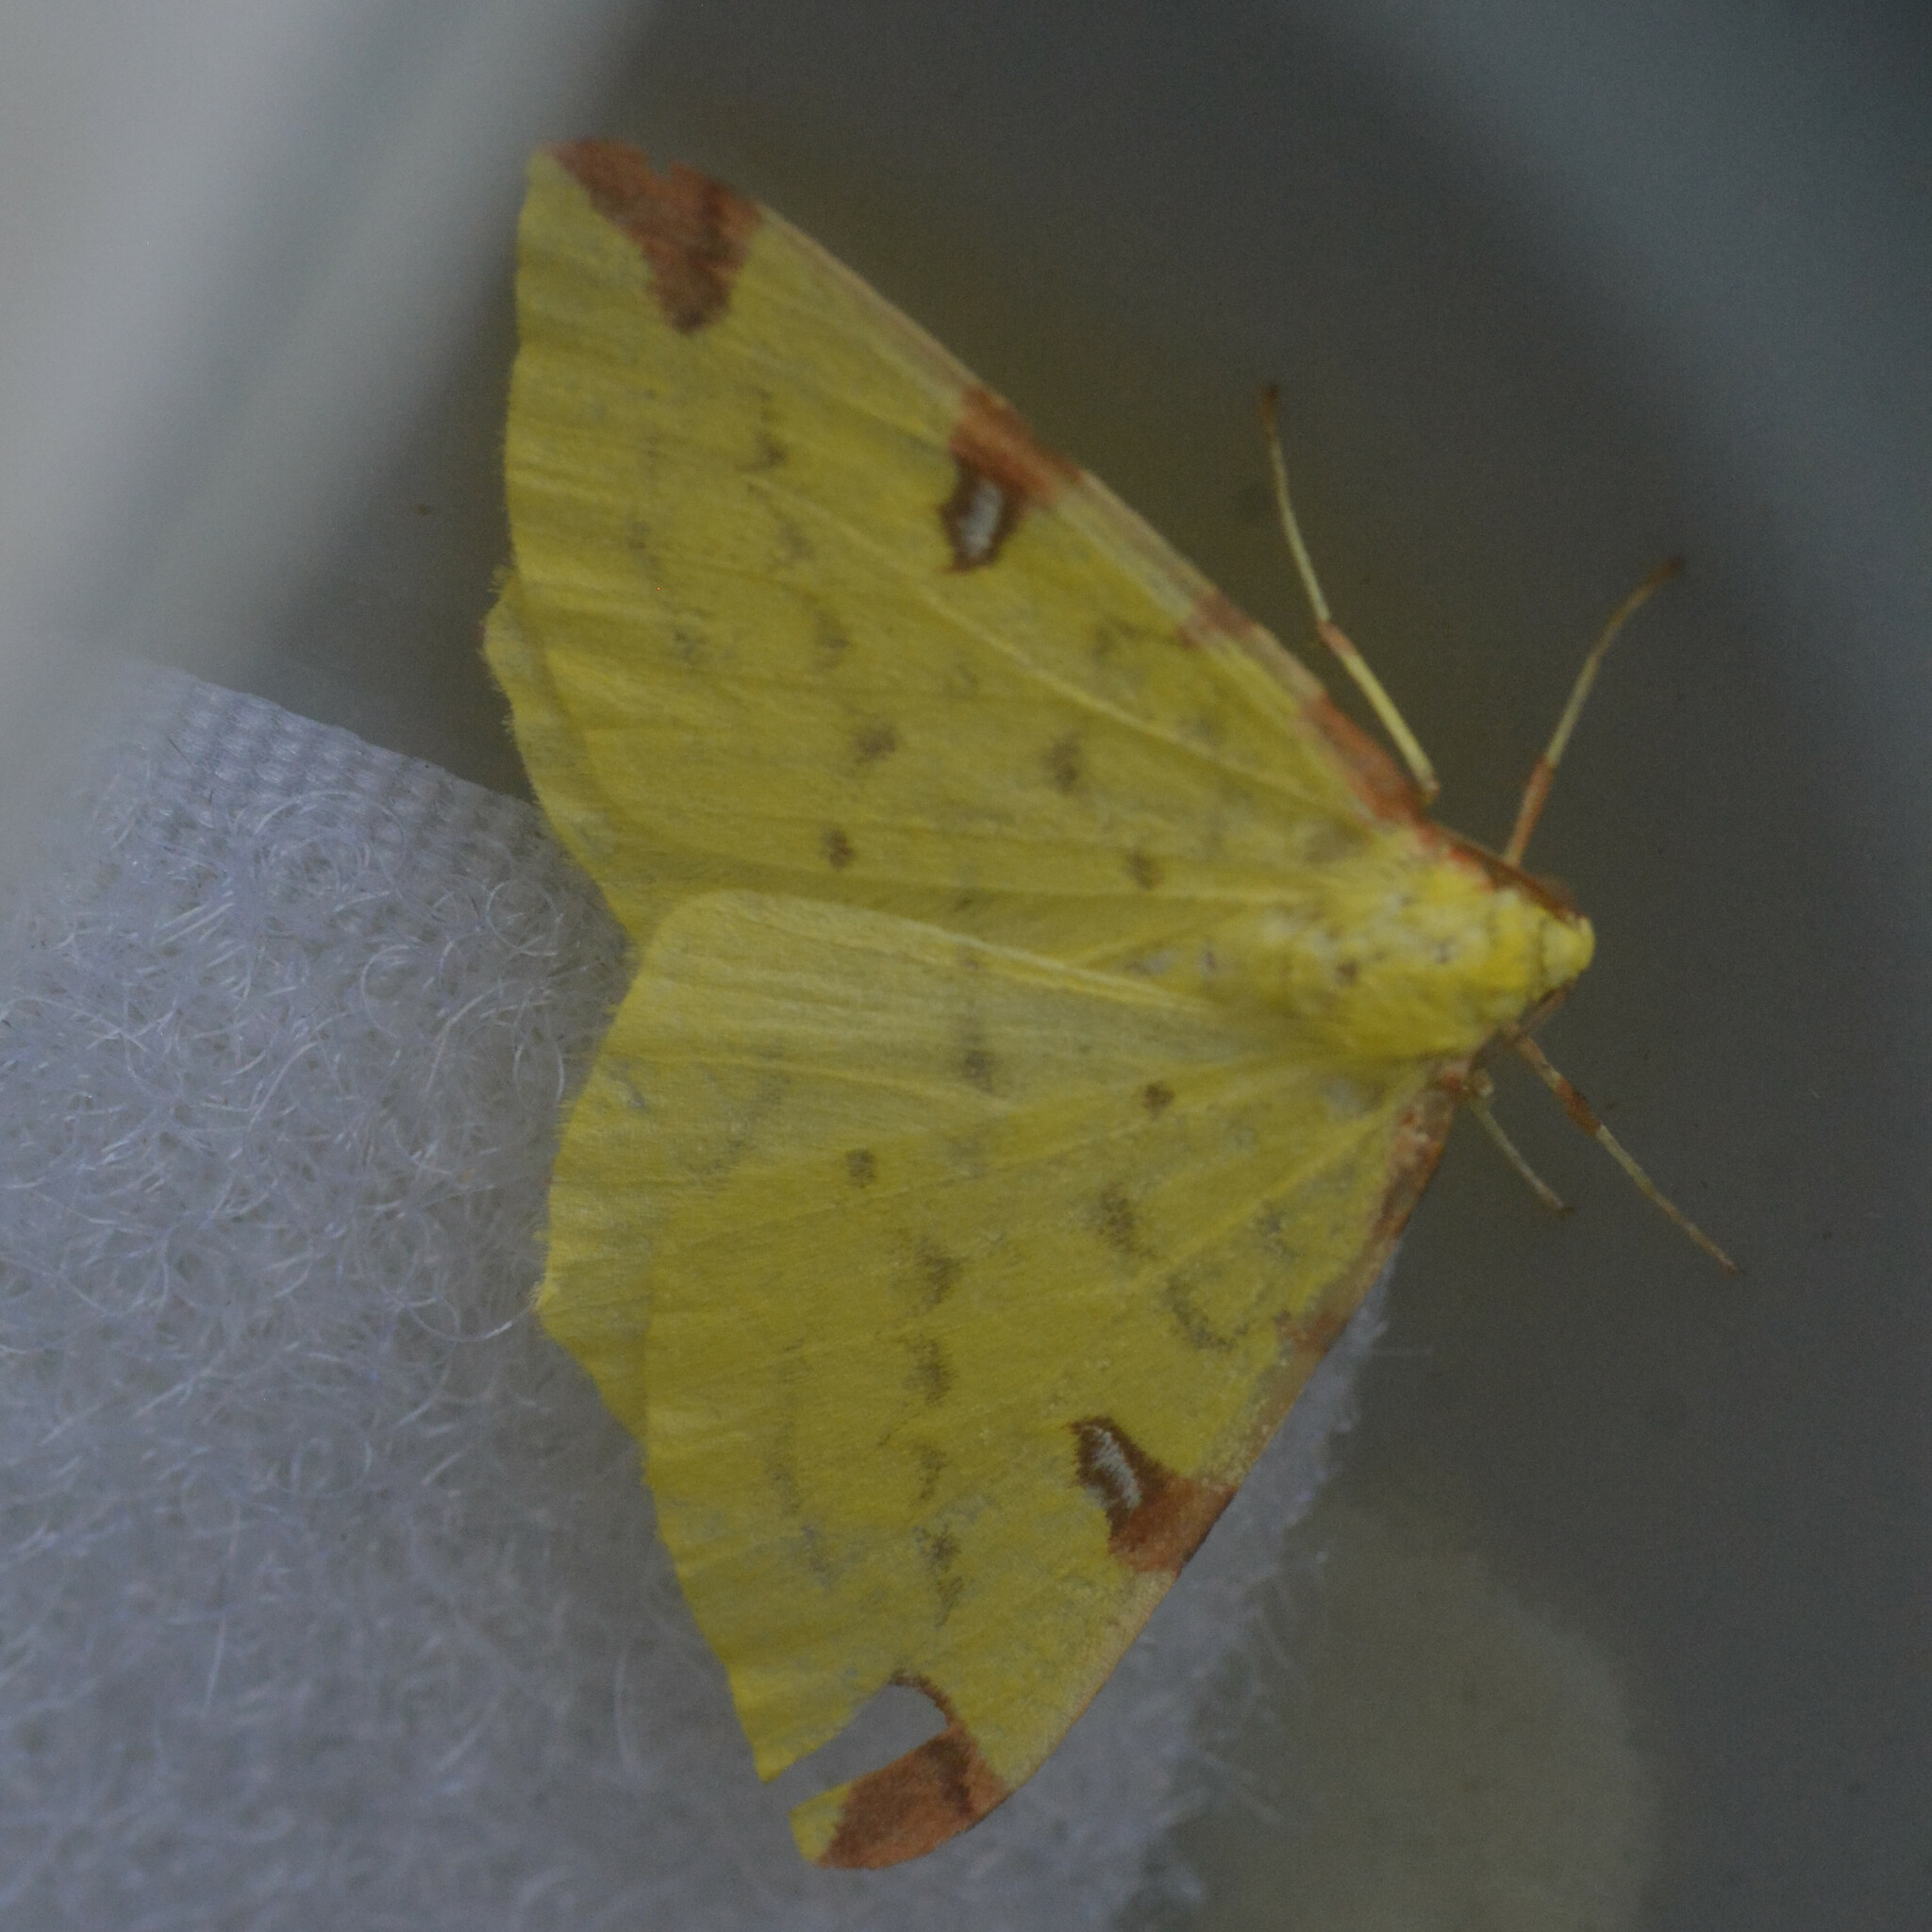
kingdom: Animalia
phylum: Arthropoda
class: Insecta
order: Lepidoptera
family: Geometridae
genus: Opisthograptis
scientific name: Opisthograptis luteolata
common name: Brimstone moth
